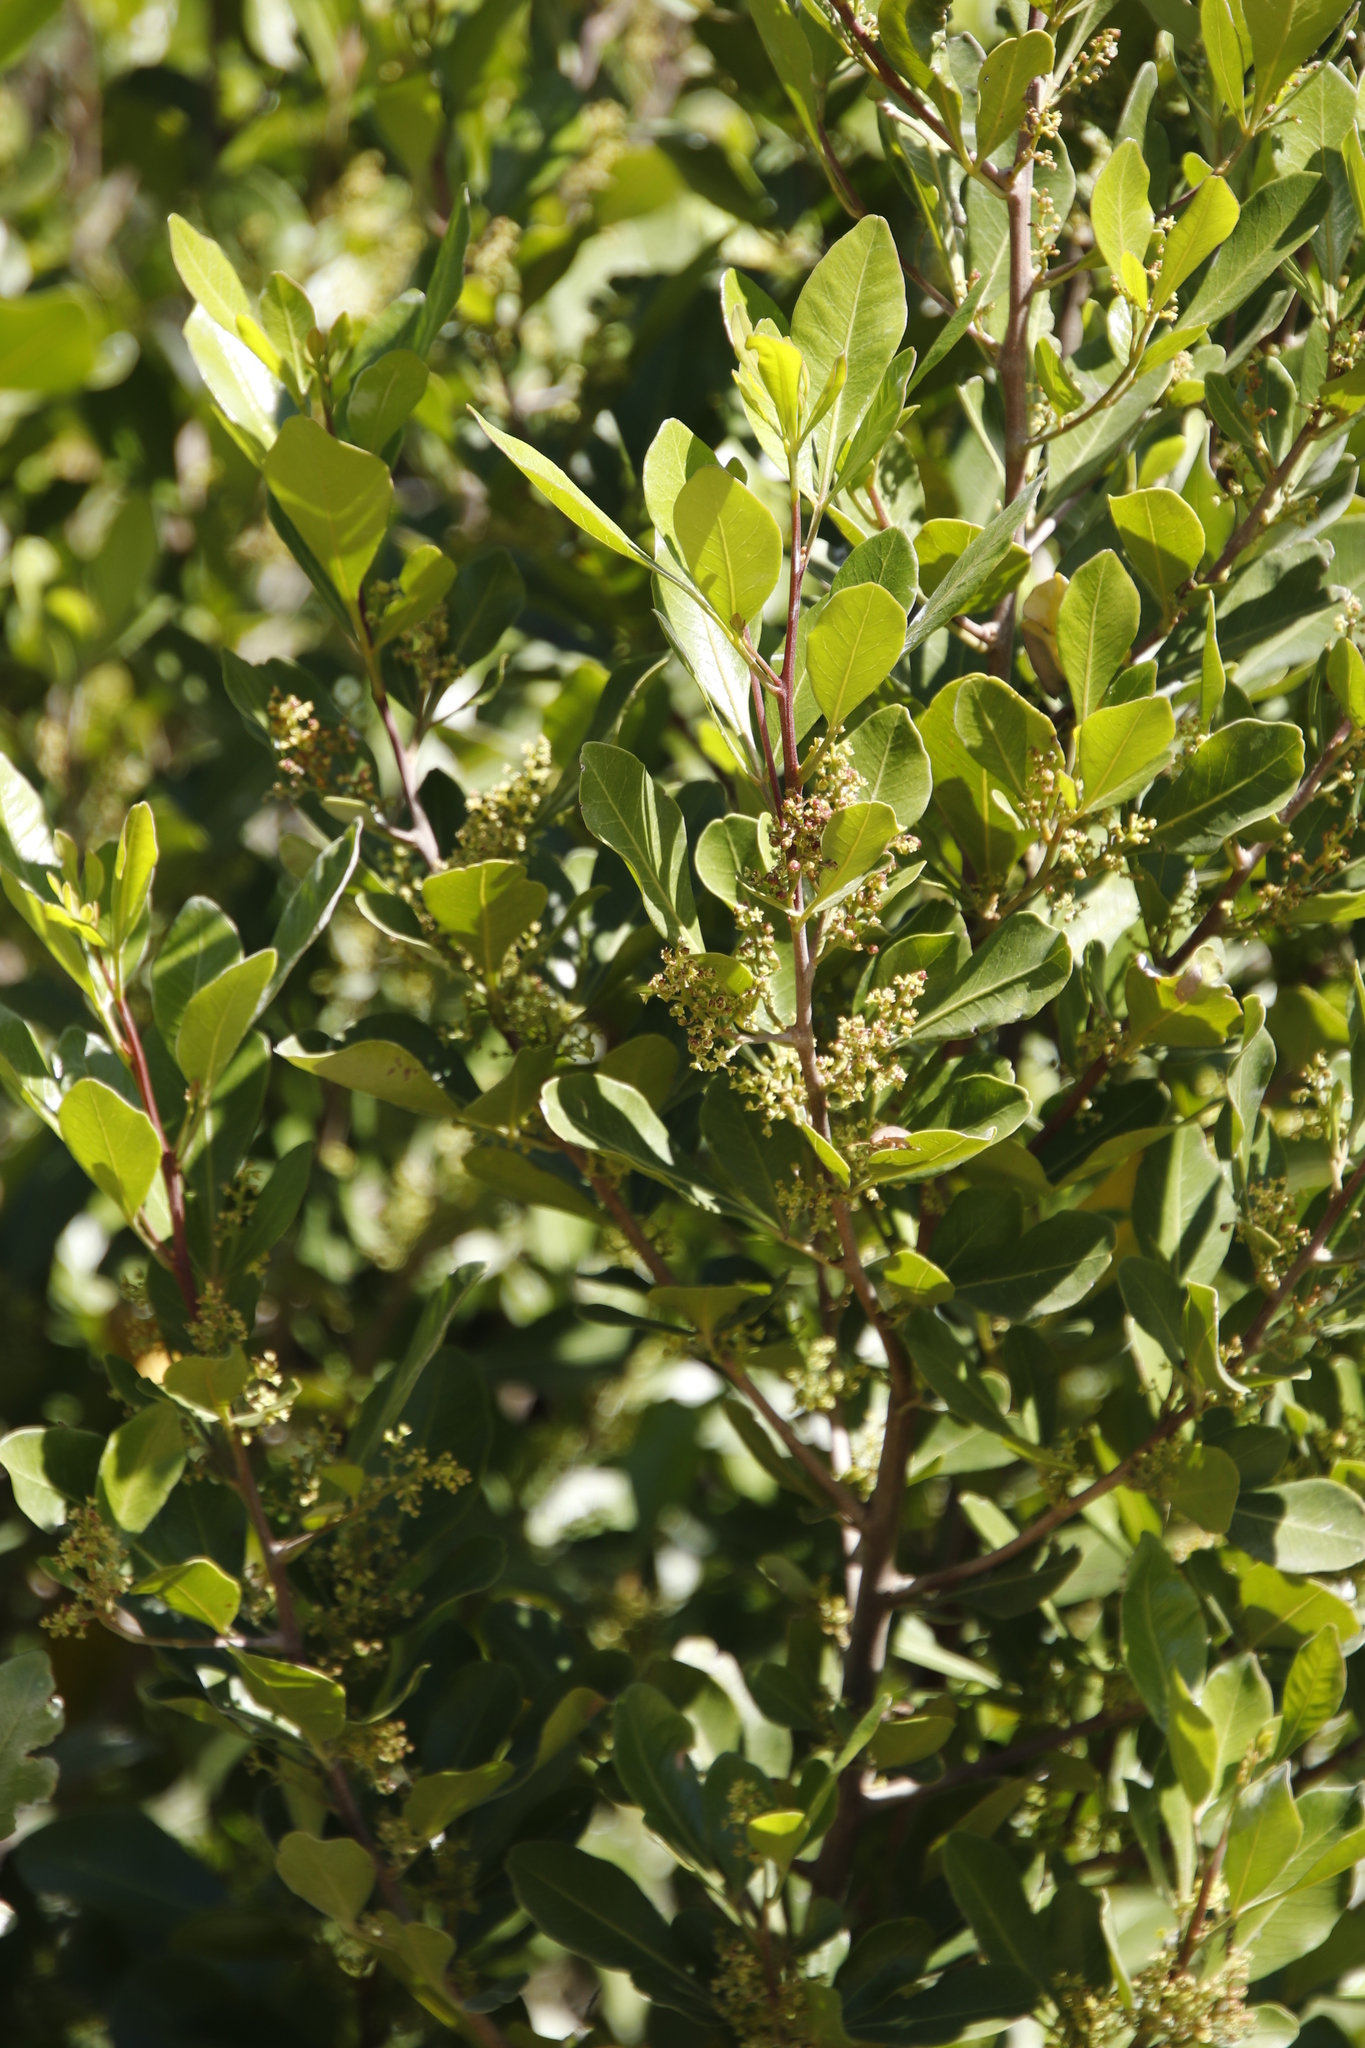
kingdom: Plantae
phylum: Tracheophyta
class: Magnoliopsida
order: Sapindales
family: Anacardiaceae
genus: Searsia
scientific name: Searsia lucida
